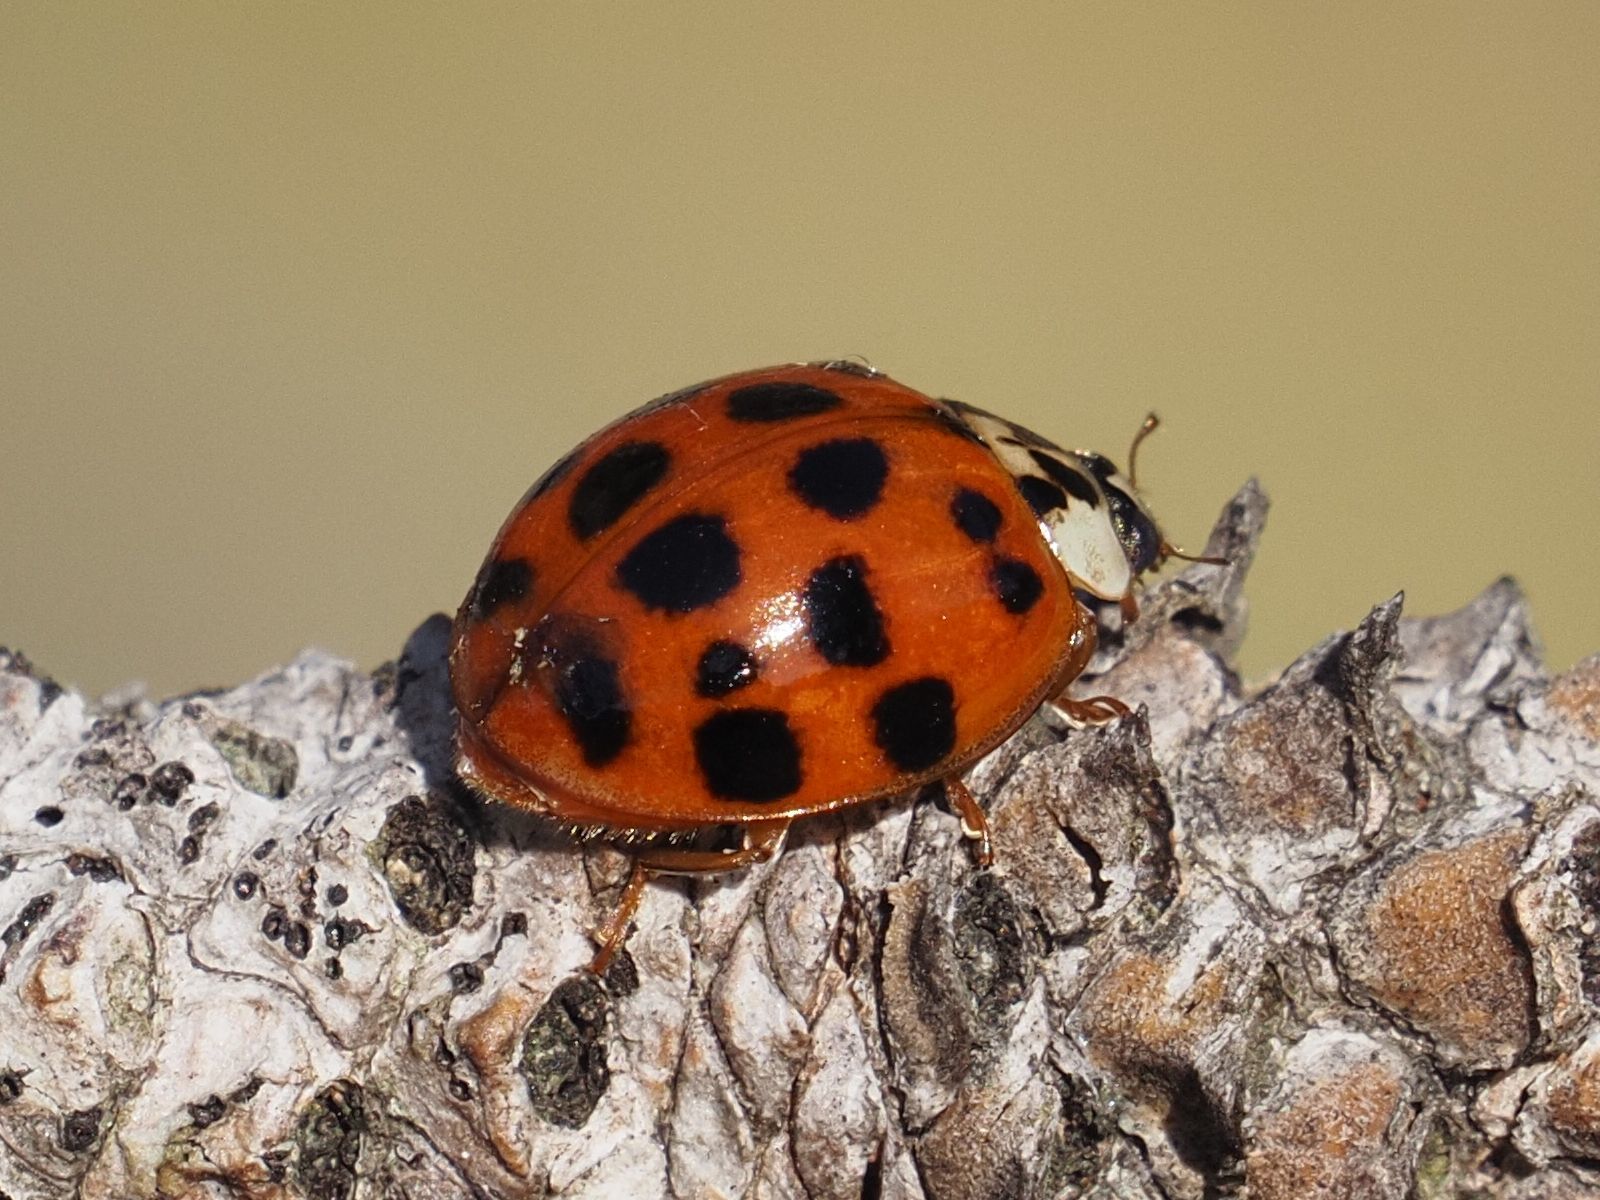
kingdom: Animalia
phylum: Arthropoda
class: Insecta
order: Coleoptera
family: Coccinellidae
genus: Harmonia
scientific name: Harmonia axyridis
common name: Harlequin ladybird
